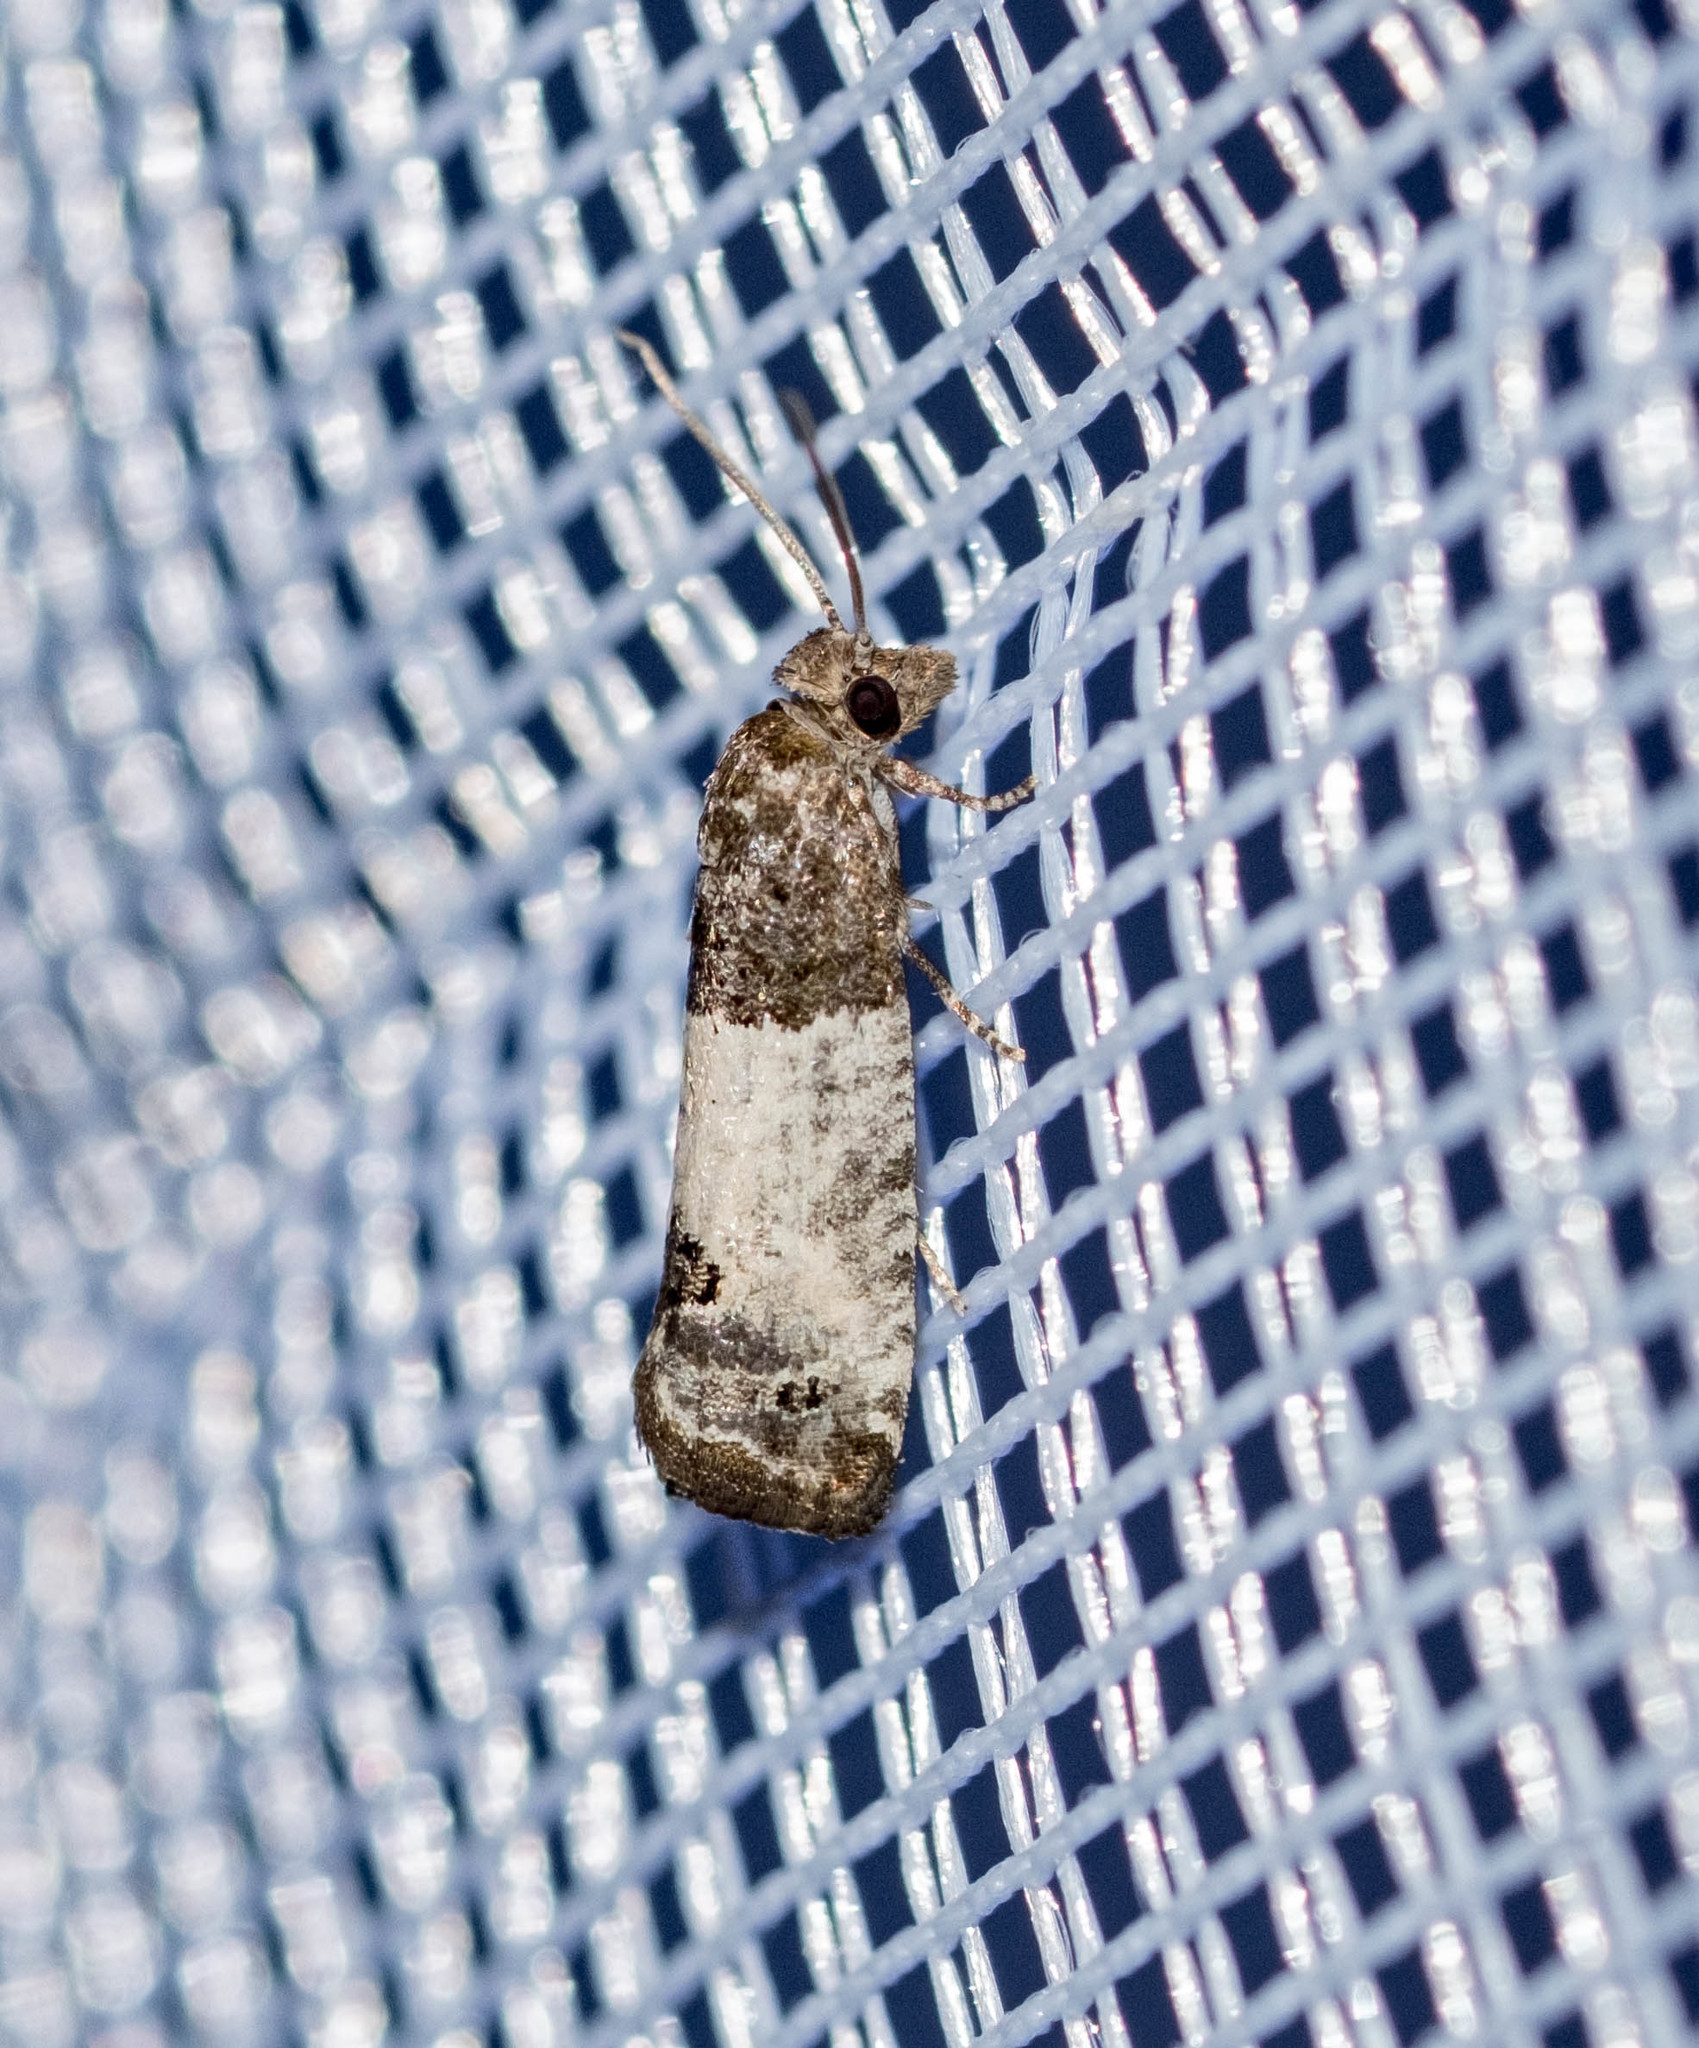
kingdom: Animalia
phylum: Arthropoda
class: Insecta
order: Lepidoptera
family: Tortricidae
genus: Spilonota
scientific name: Spilonota ocellana
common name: Bud moth
